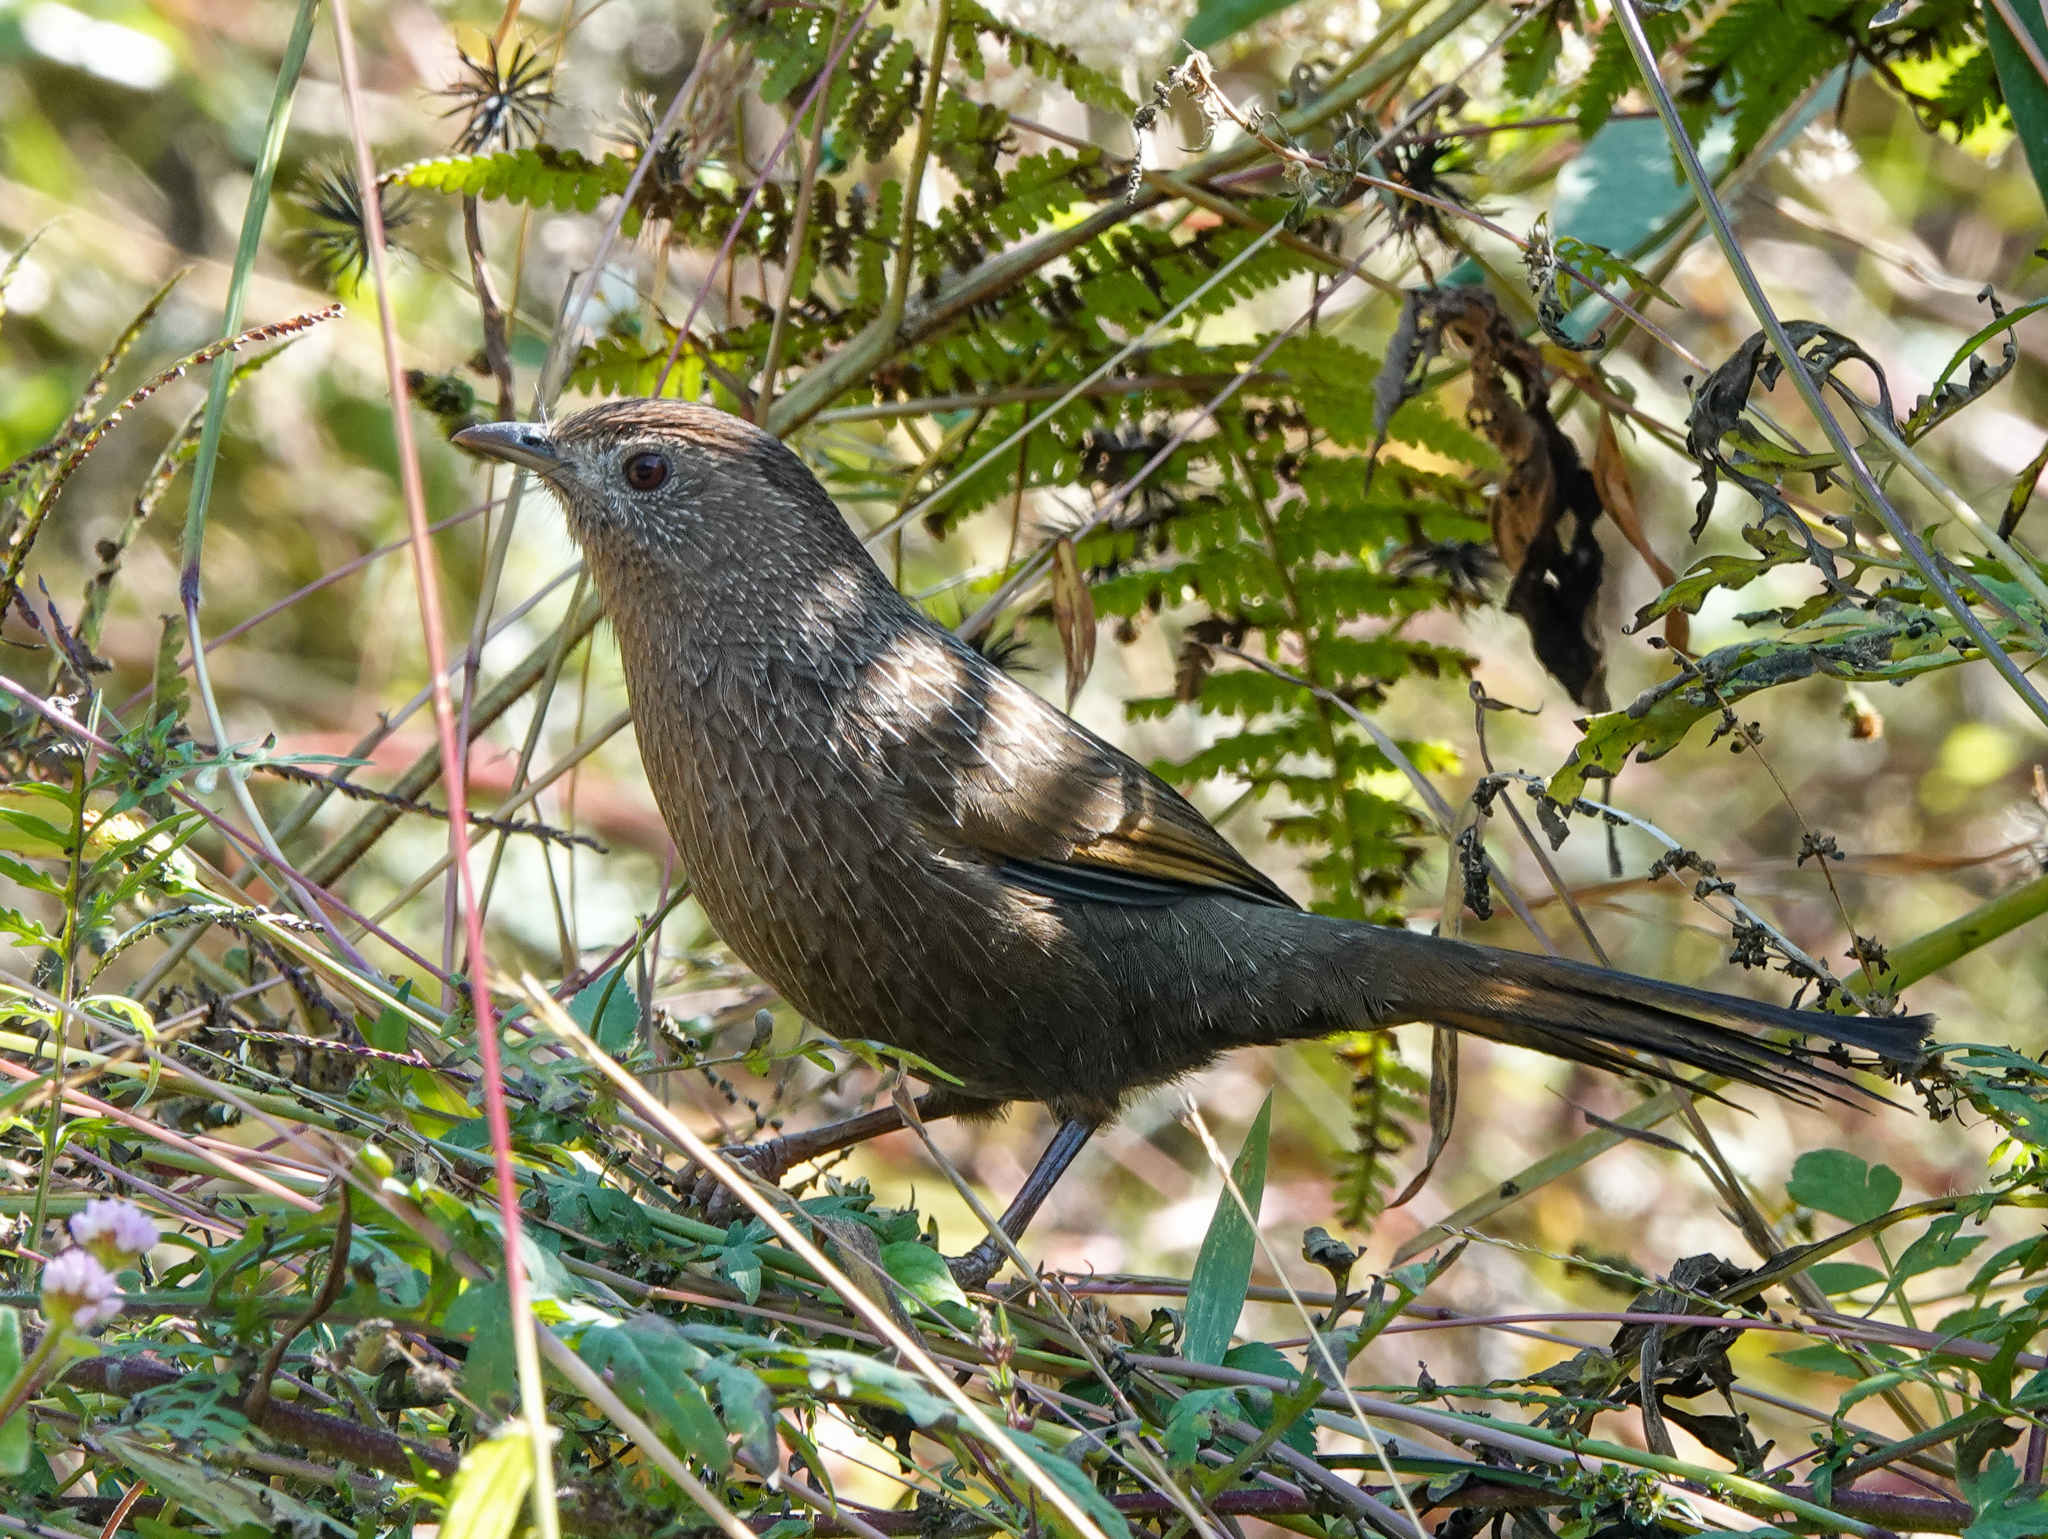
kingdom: Animalia
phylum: Chordata
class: Aves
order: Passeriformes
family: Leiothrichidae
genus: Trochalopteron
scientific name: Trochalopteron imbricatum
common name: Bhutan laughingthrush
